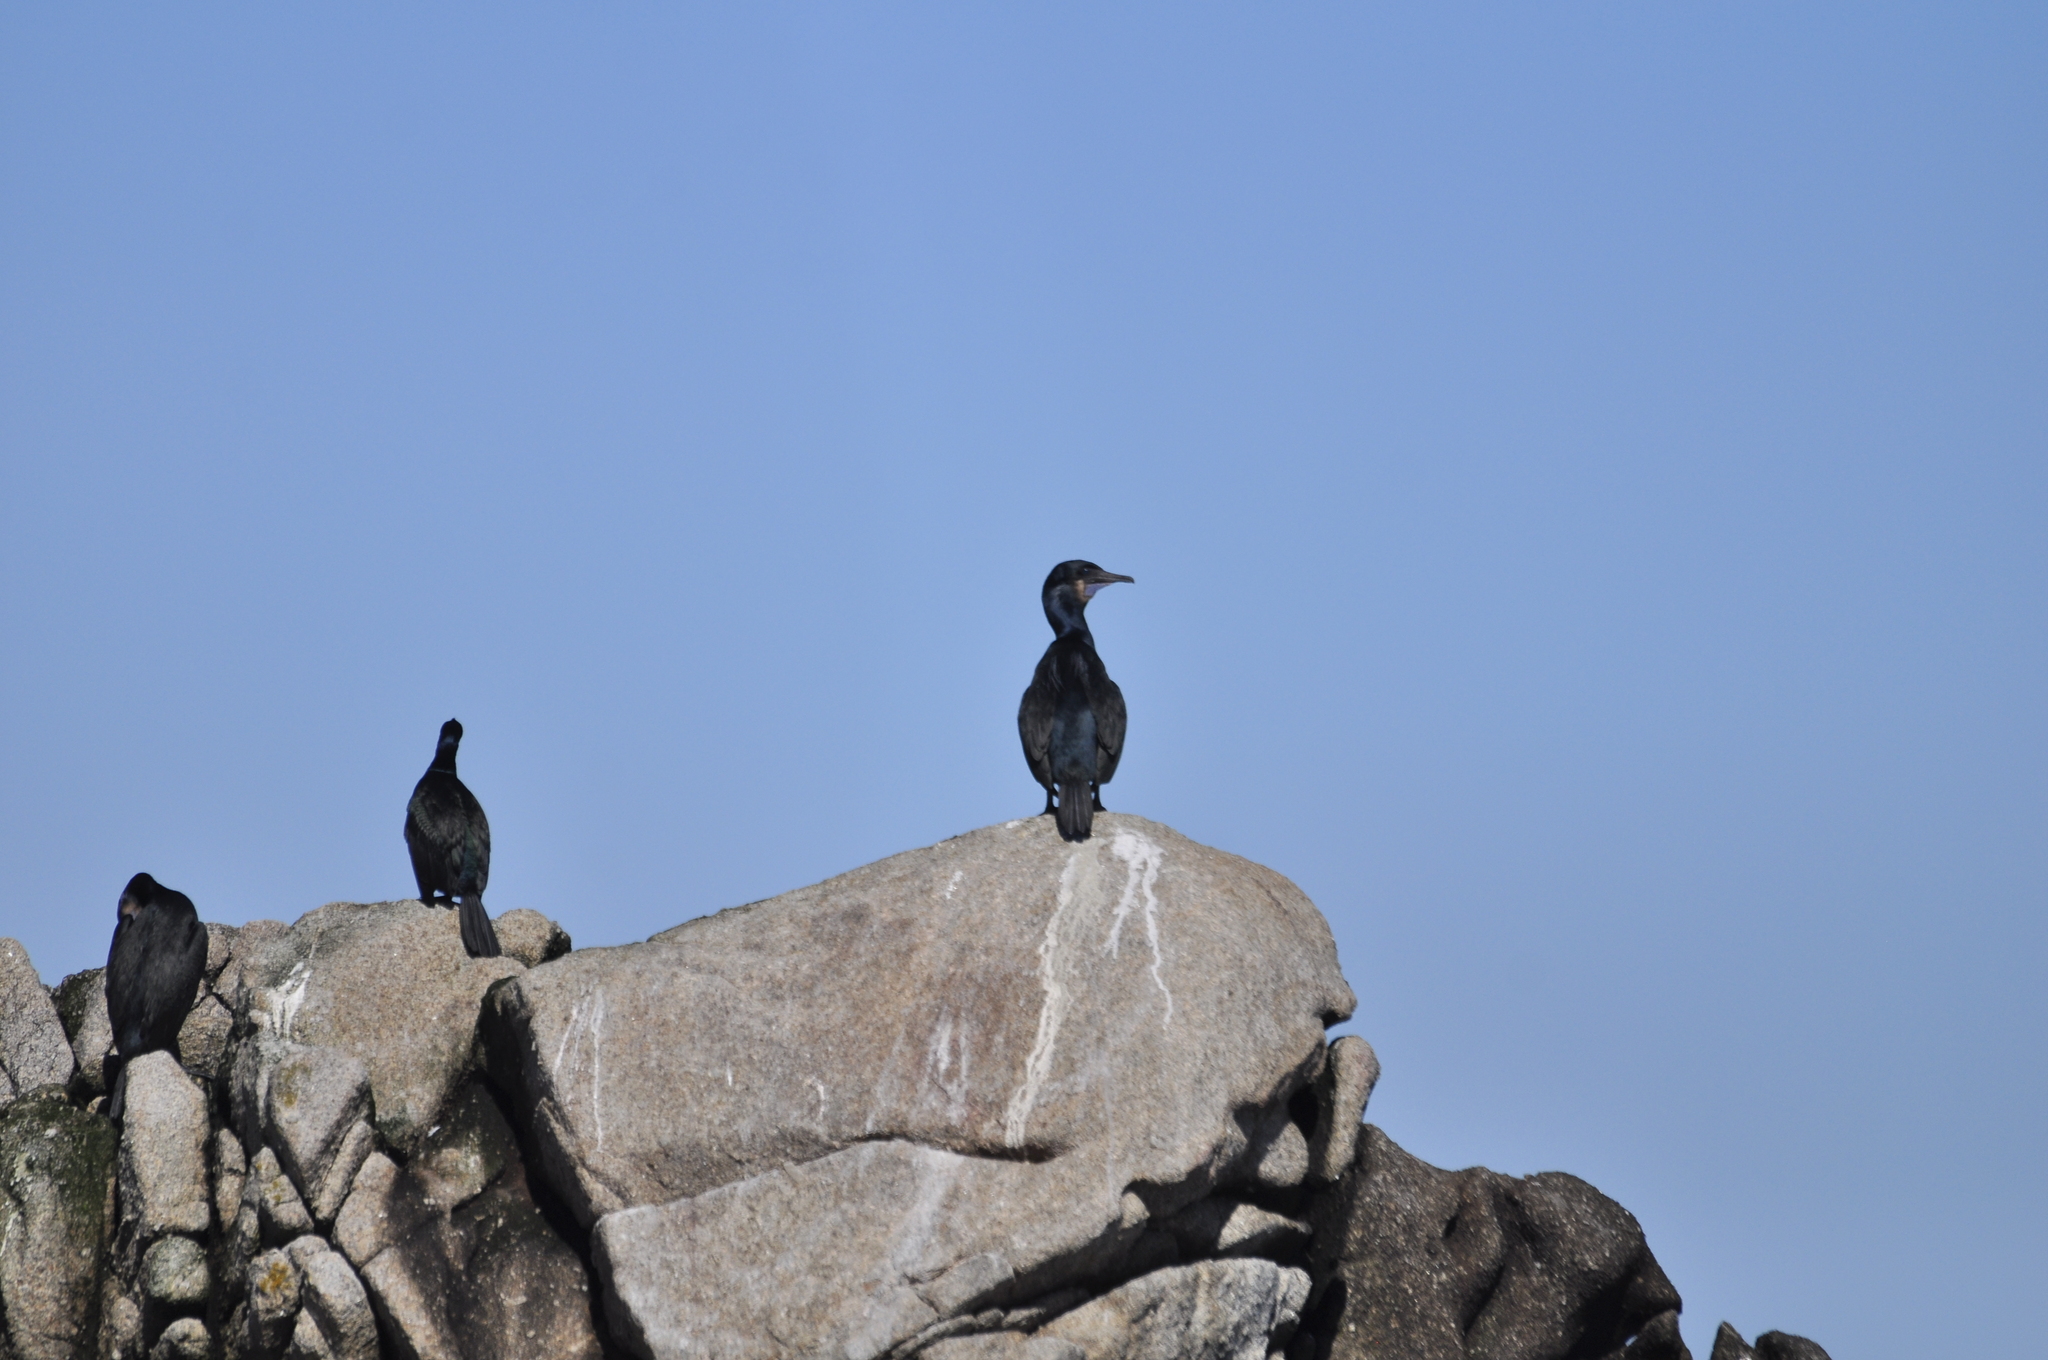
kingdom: Animalia
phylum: Chordata
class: Aves
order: Suliformes
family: Phalacrocoracidae
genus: Urile
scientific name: Urile penicillatus
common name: Brandt's cormorant
